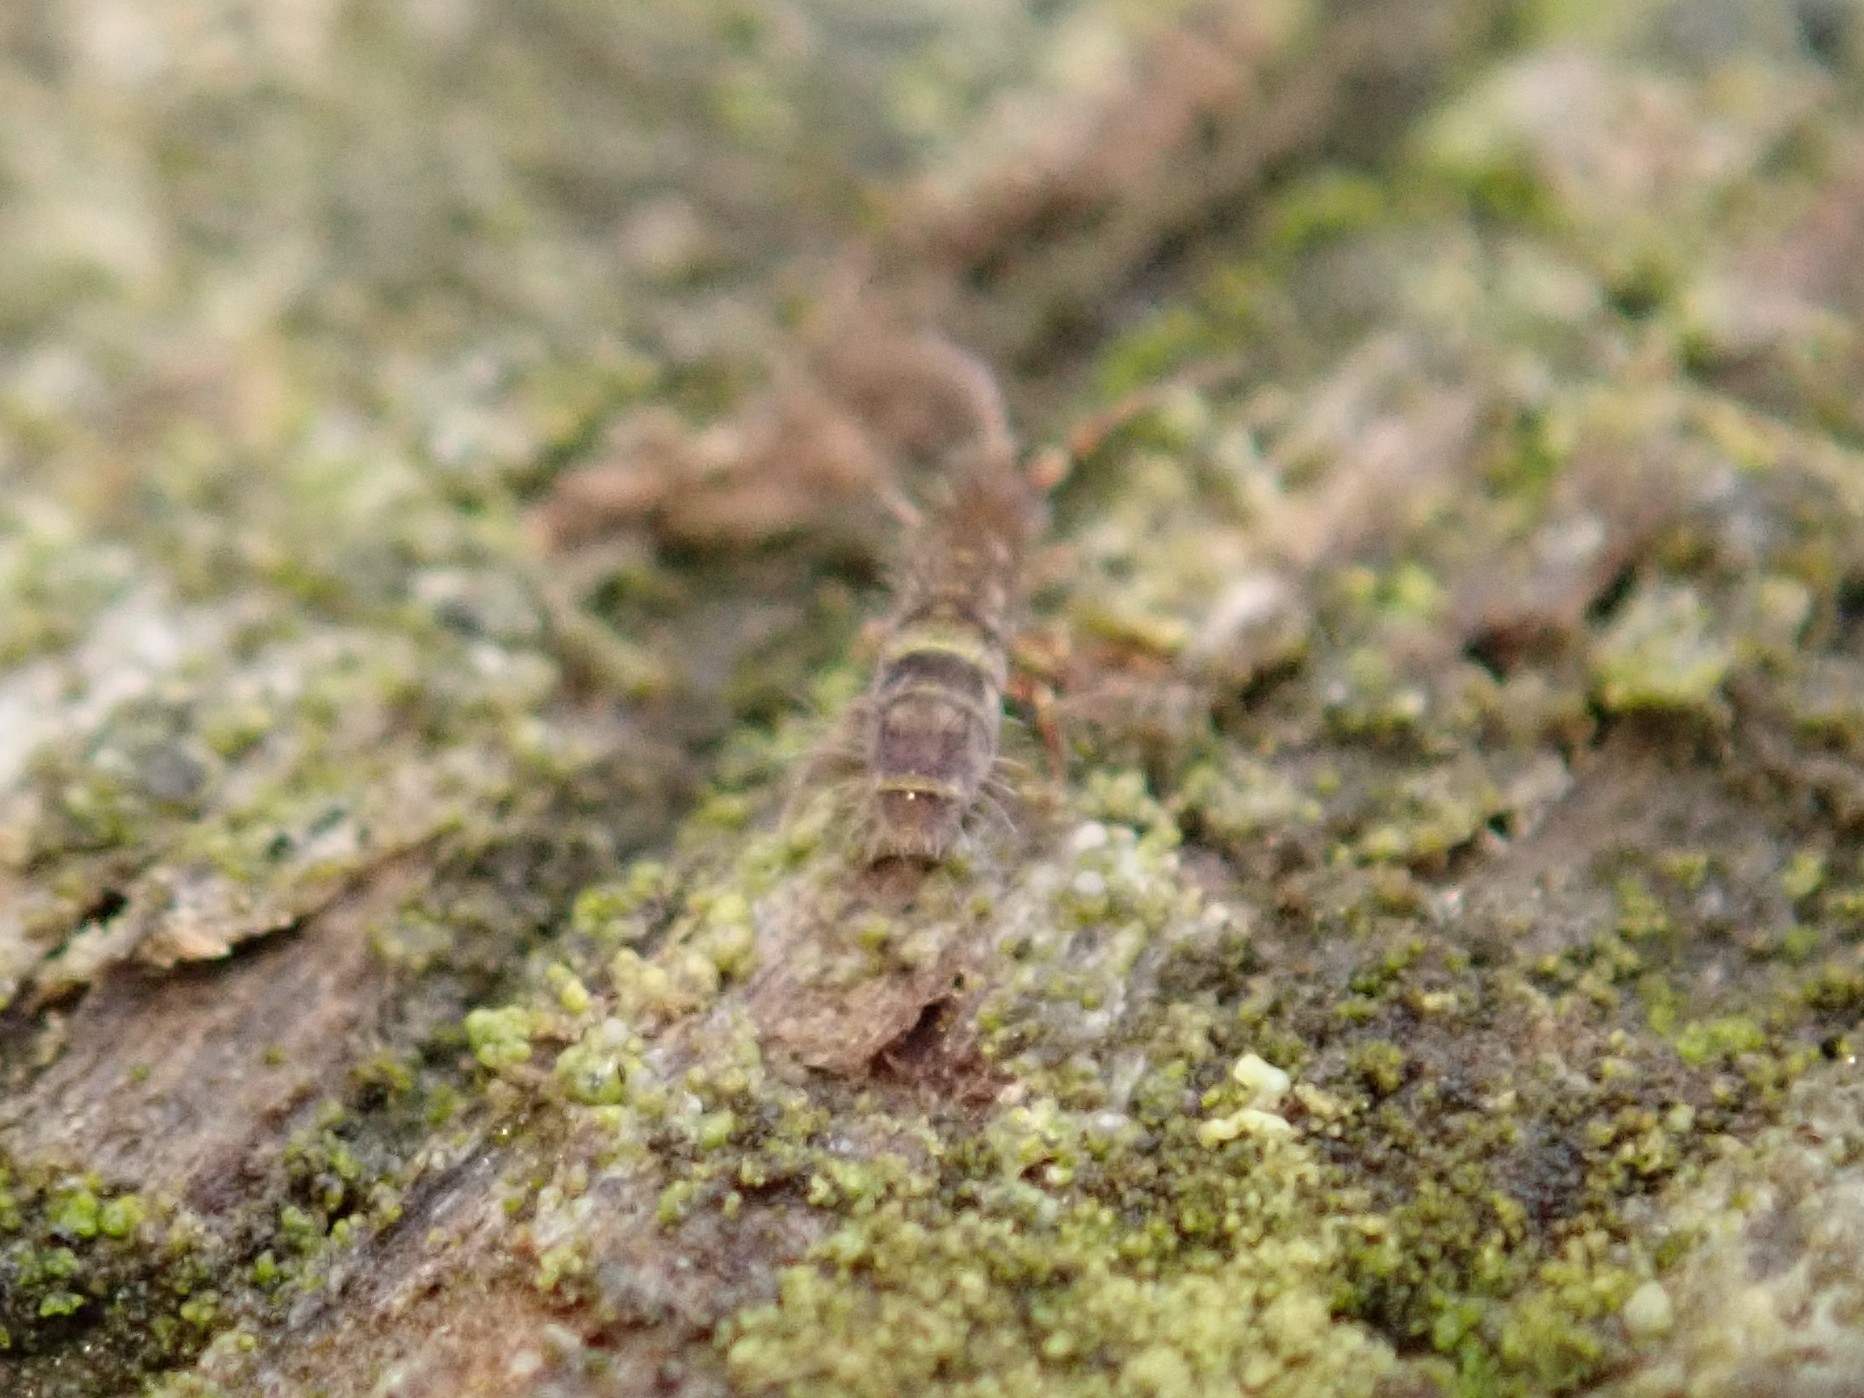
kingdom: Animalia
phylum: Arthropoda
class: Collembola
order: Entomobryomorpha
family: Orchesellidae
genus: Orchesella
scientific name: Orchesella cincta
